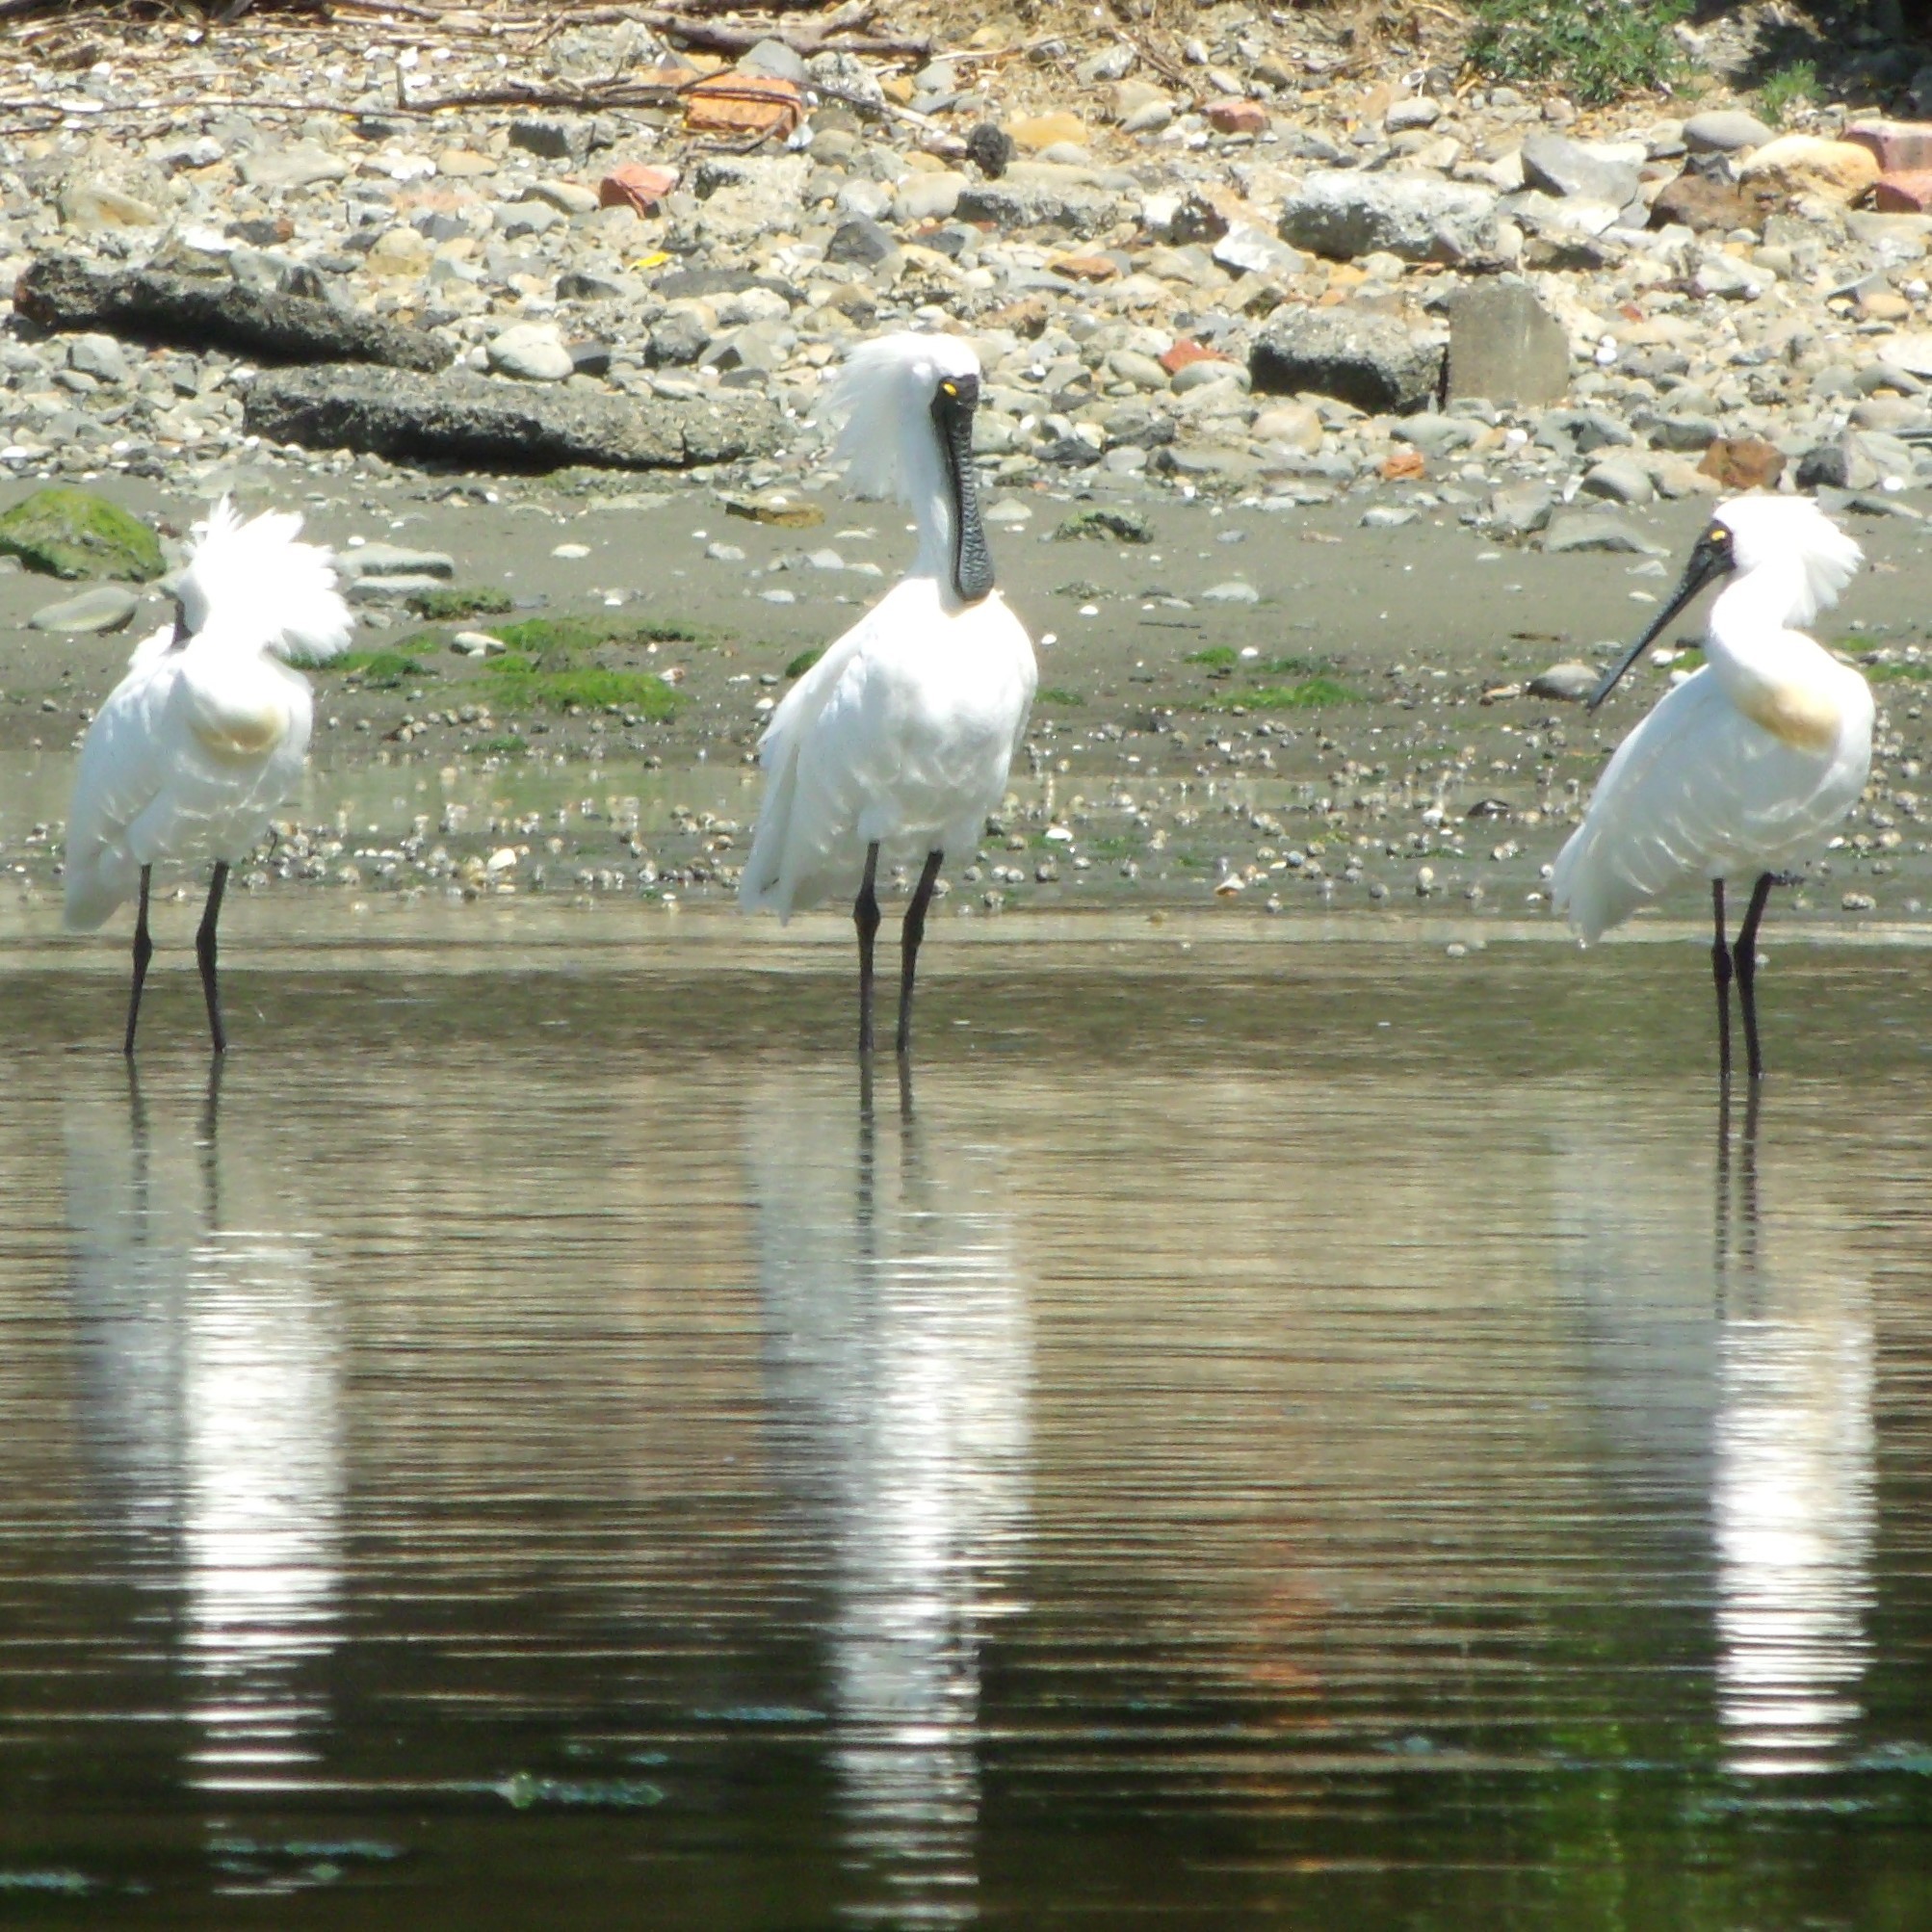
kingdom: Animalia
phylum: Chordata
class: Aves
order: Pelecaniformes
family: Threskiornithidae
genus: Platalea
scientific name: Platalea regia
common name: Royal spoonbill
